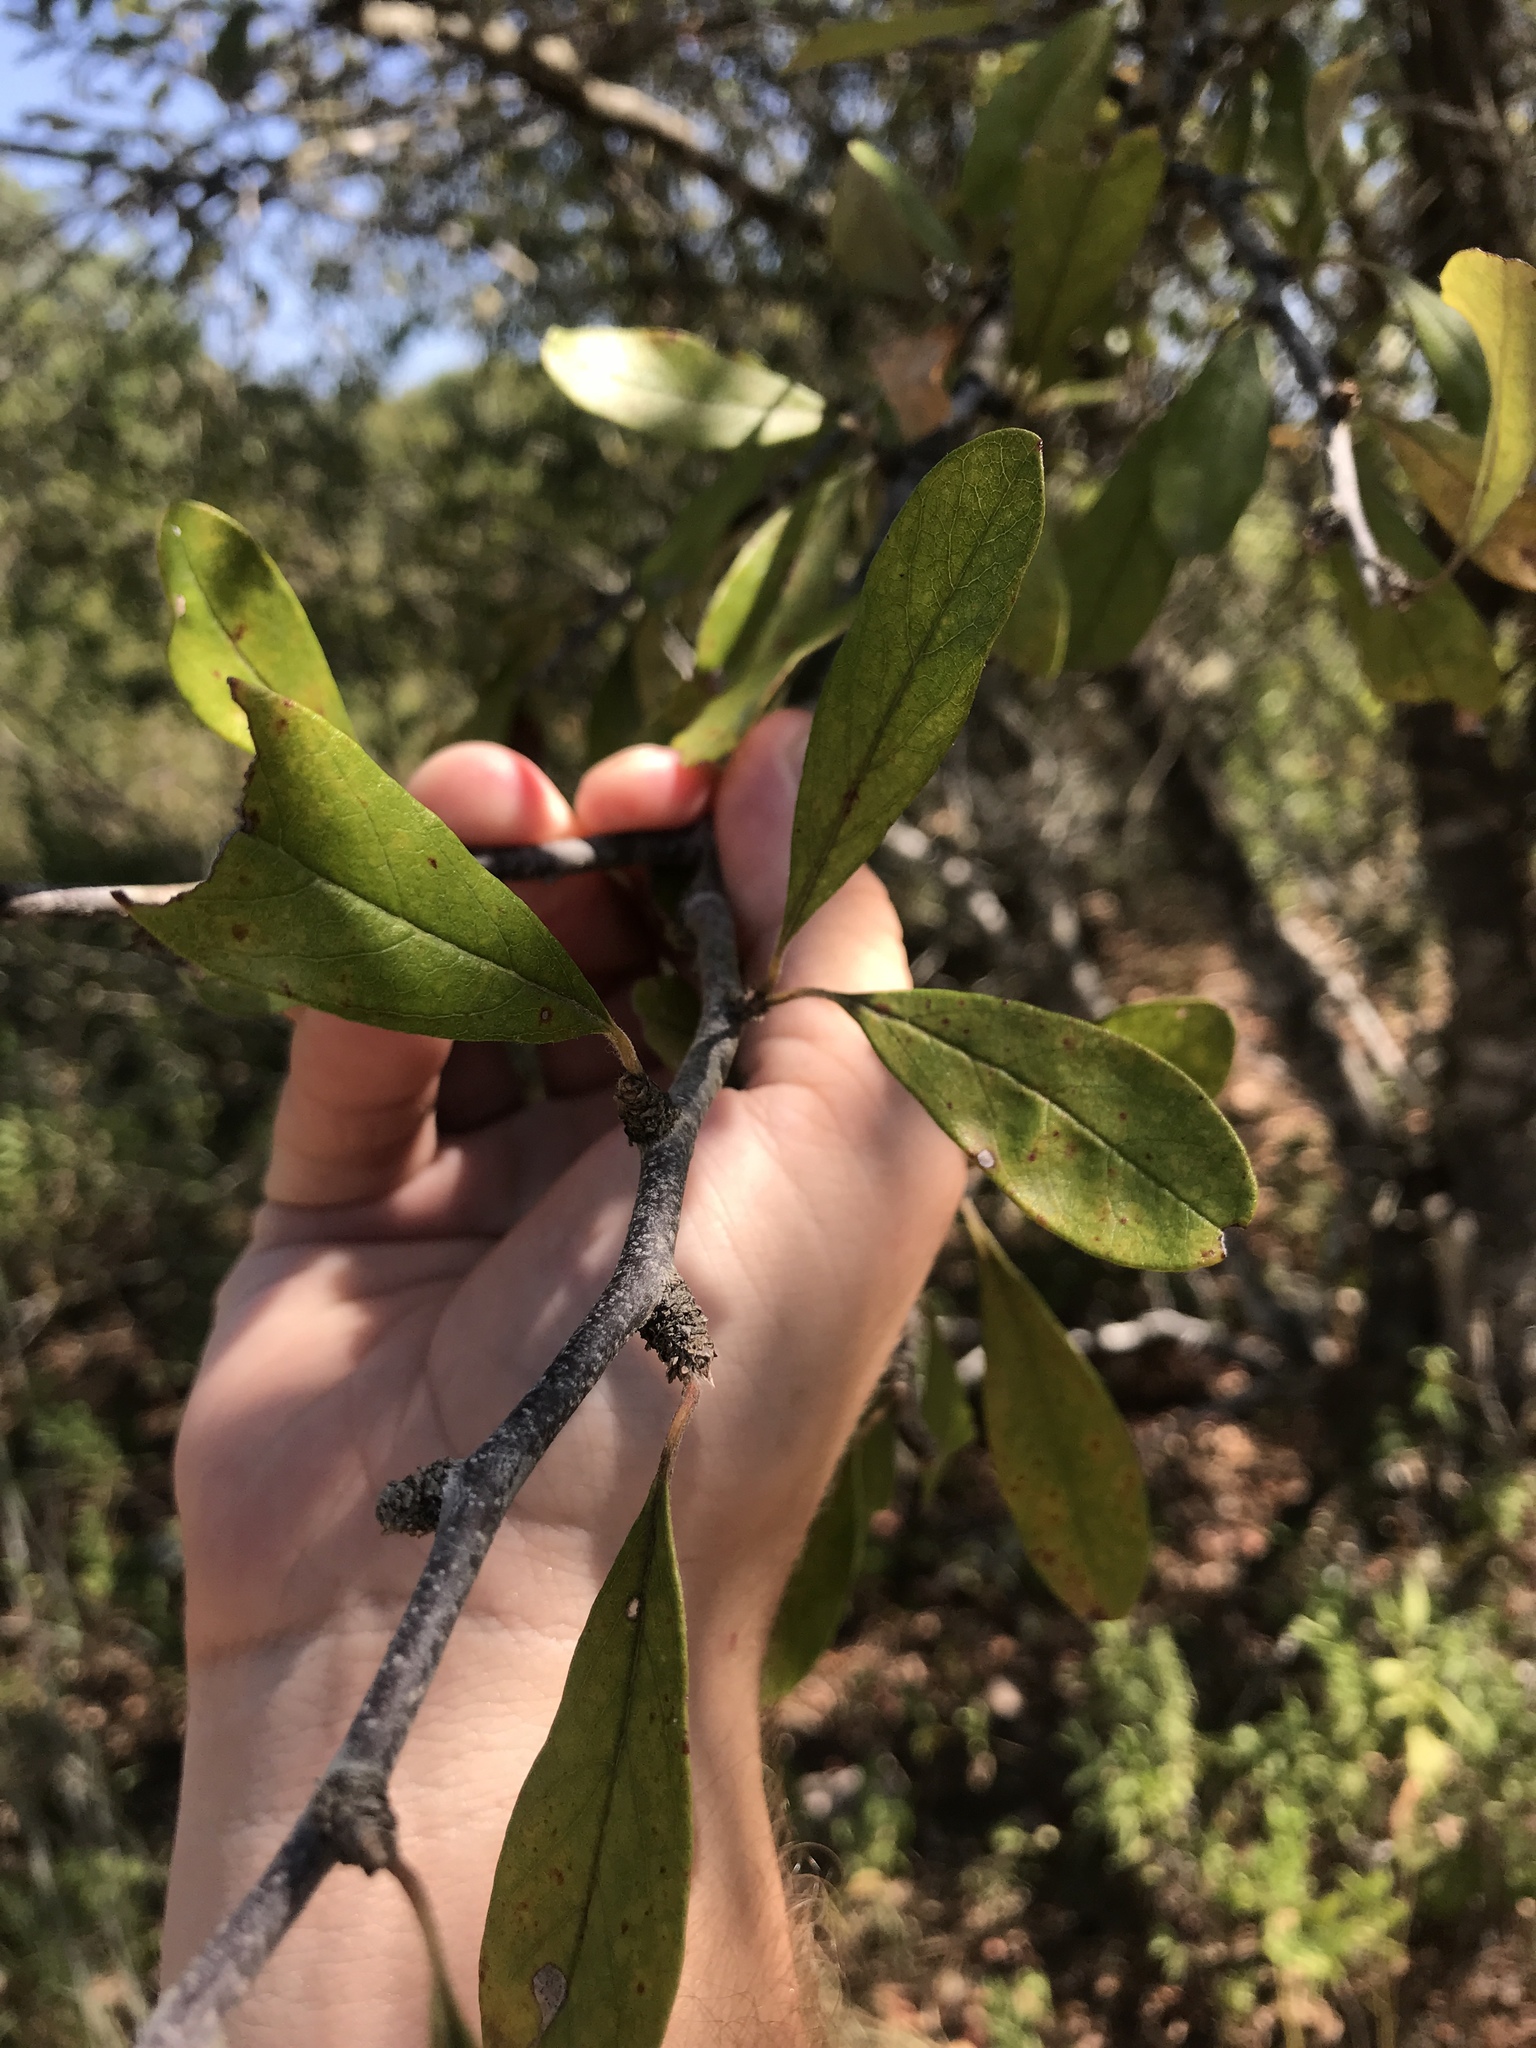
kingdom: Plantae
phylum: Tracheophyta
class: Magnoliopsida
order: Ericales
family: Sapotaceae
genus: Sideroxylon
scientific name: Sideroxylon lanuginosum
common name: Chittamwood
